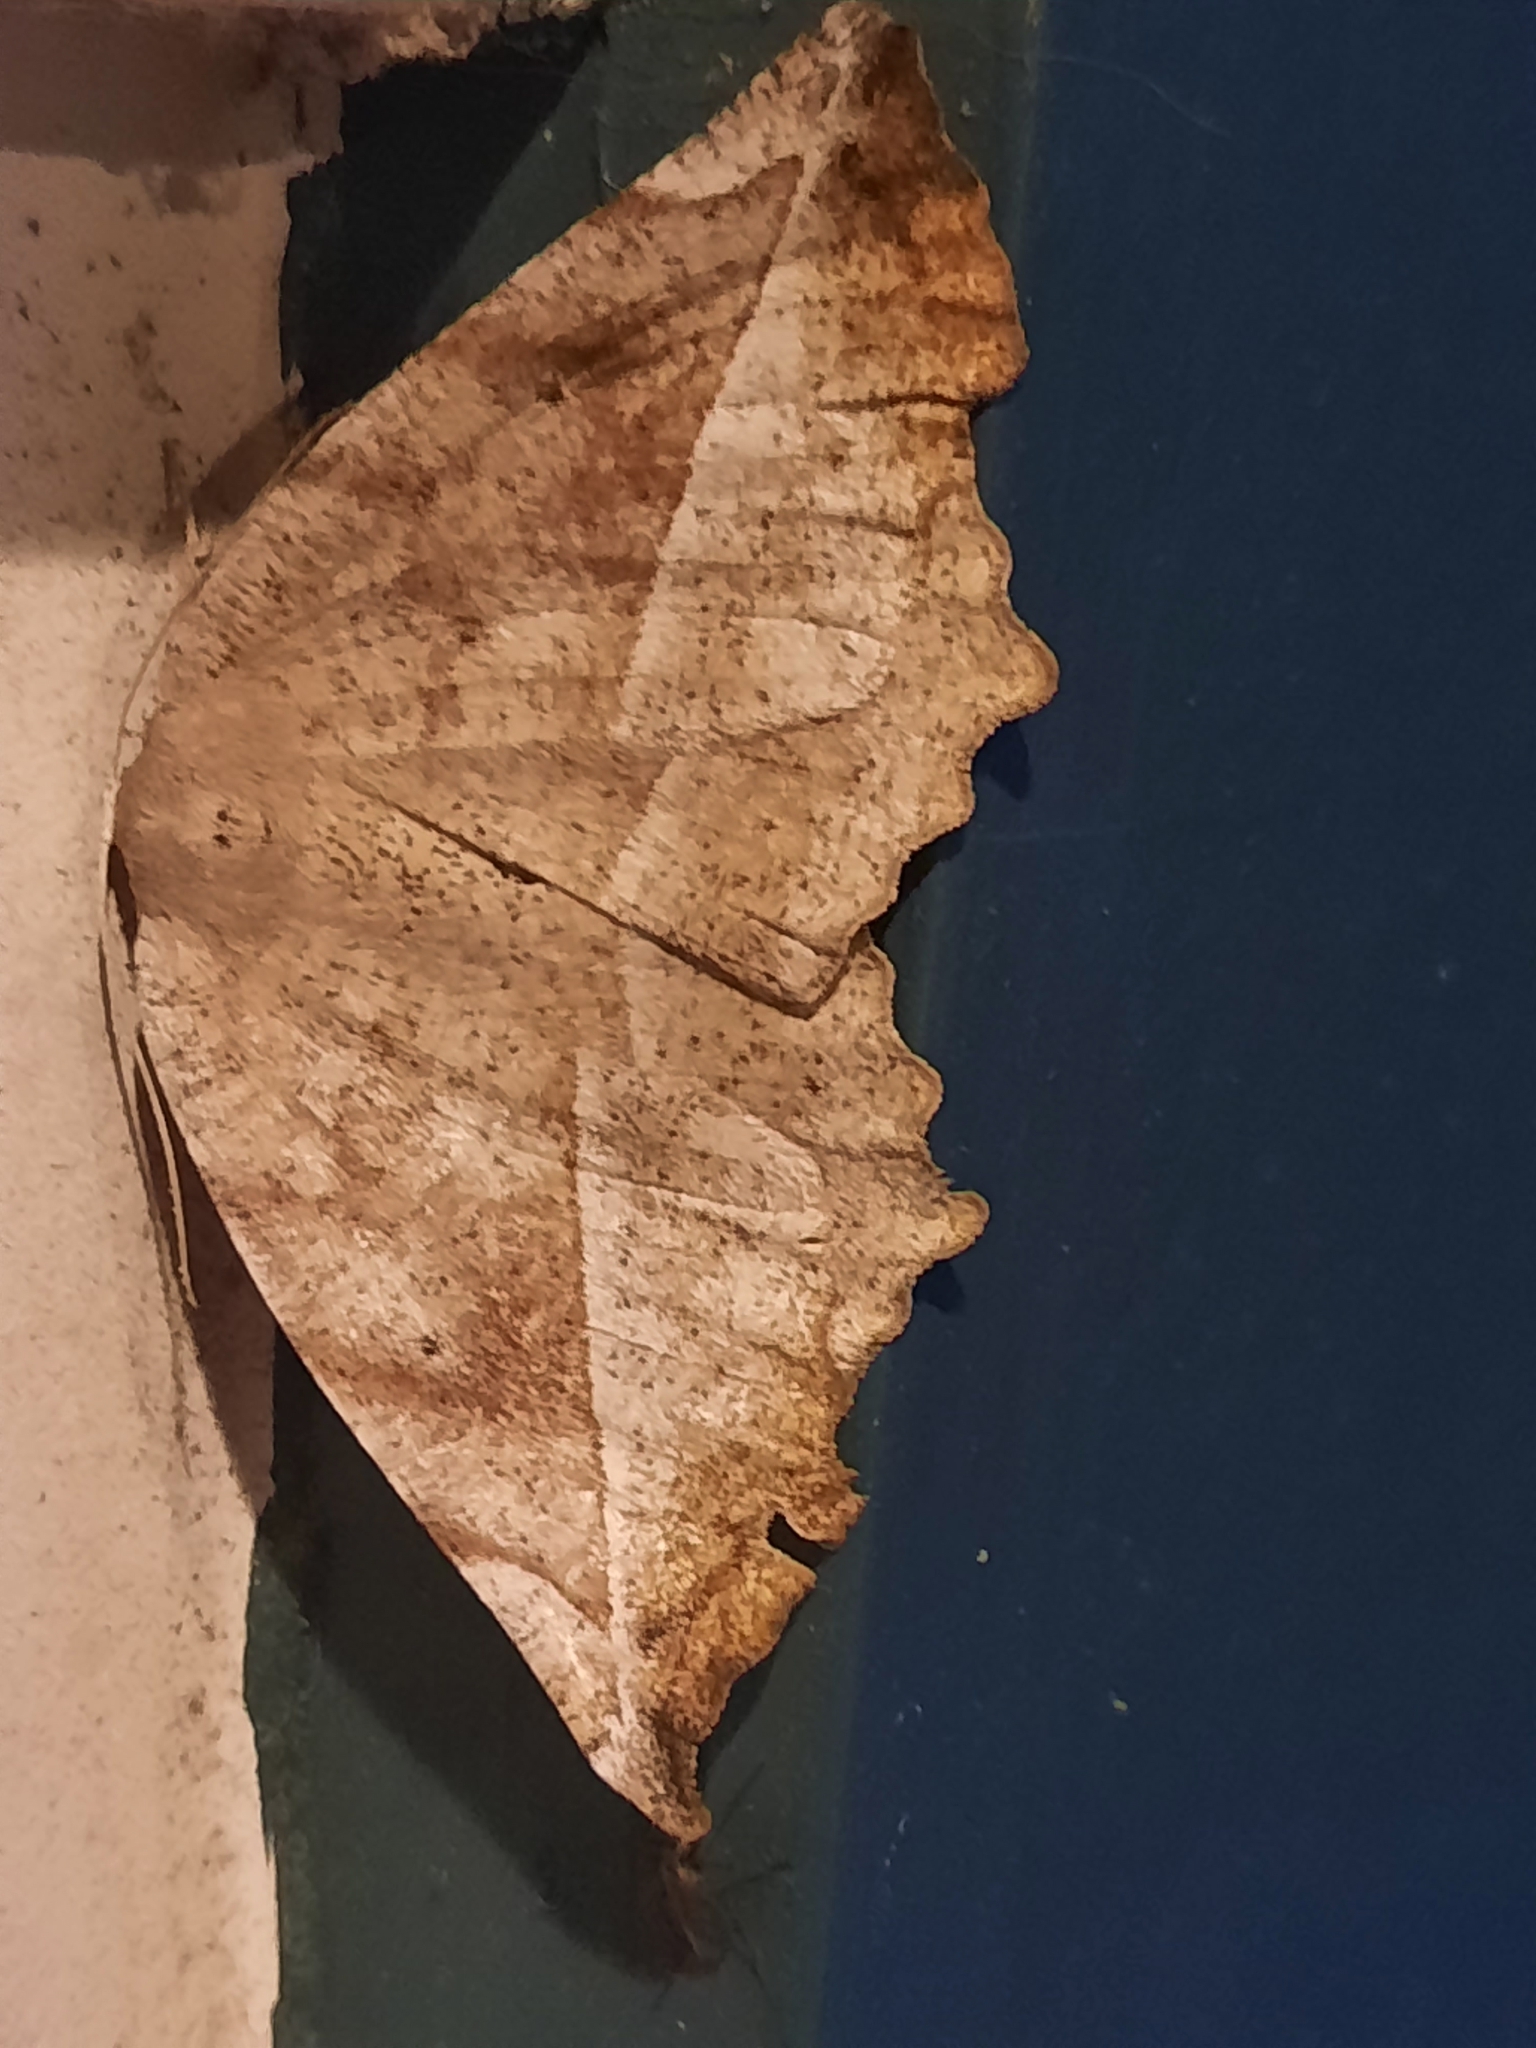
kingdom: Animalia
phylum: Arthropoda
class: Insecta
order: Lepidoptera
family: Geometridae
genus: Eutrapela
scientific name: Eutrapela clemataria
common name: Curved-toothed geometer
